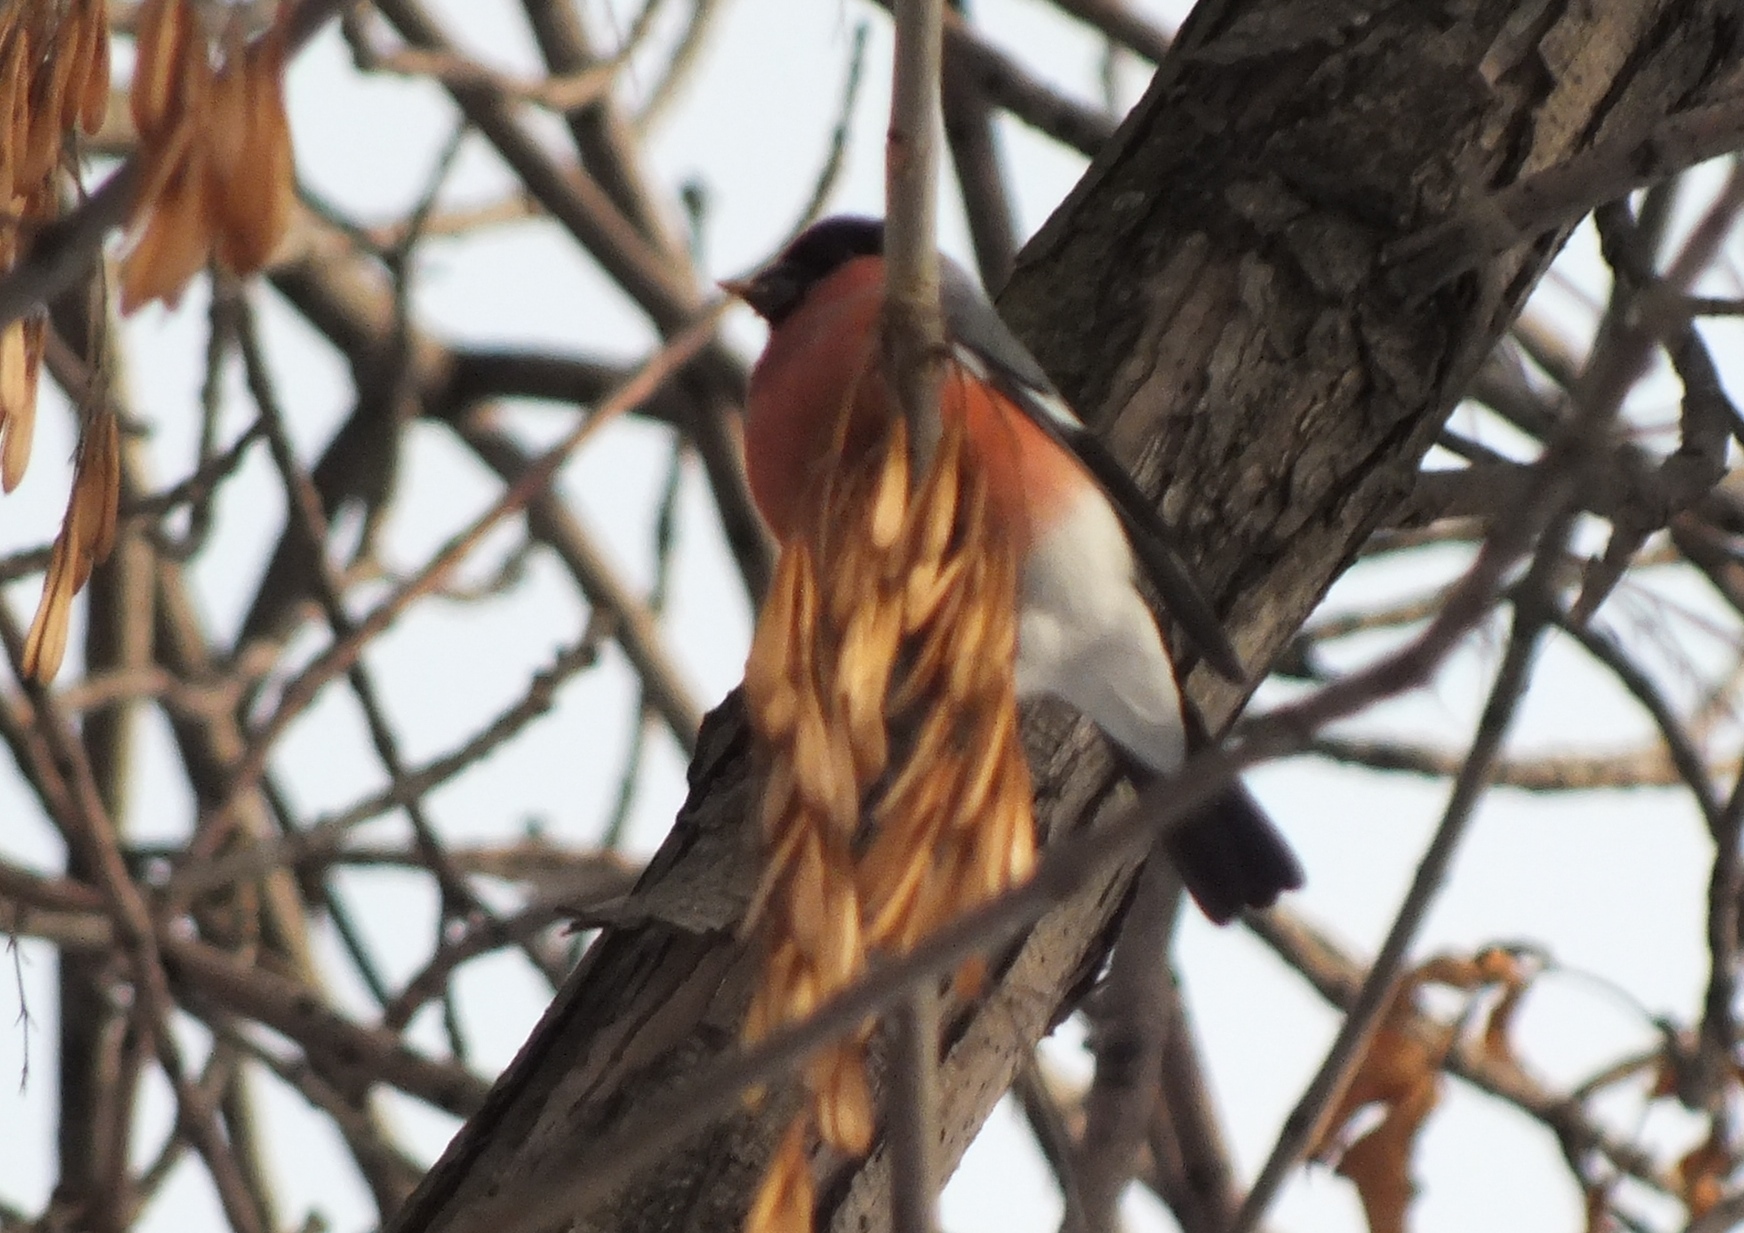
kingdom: Animalia
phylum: Chordata
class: Aves
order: Passeriformes
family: Fringillidae
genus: Pyrrhula
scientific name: Pyrrhula pyrrhula
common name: Eurasian bullfinch
